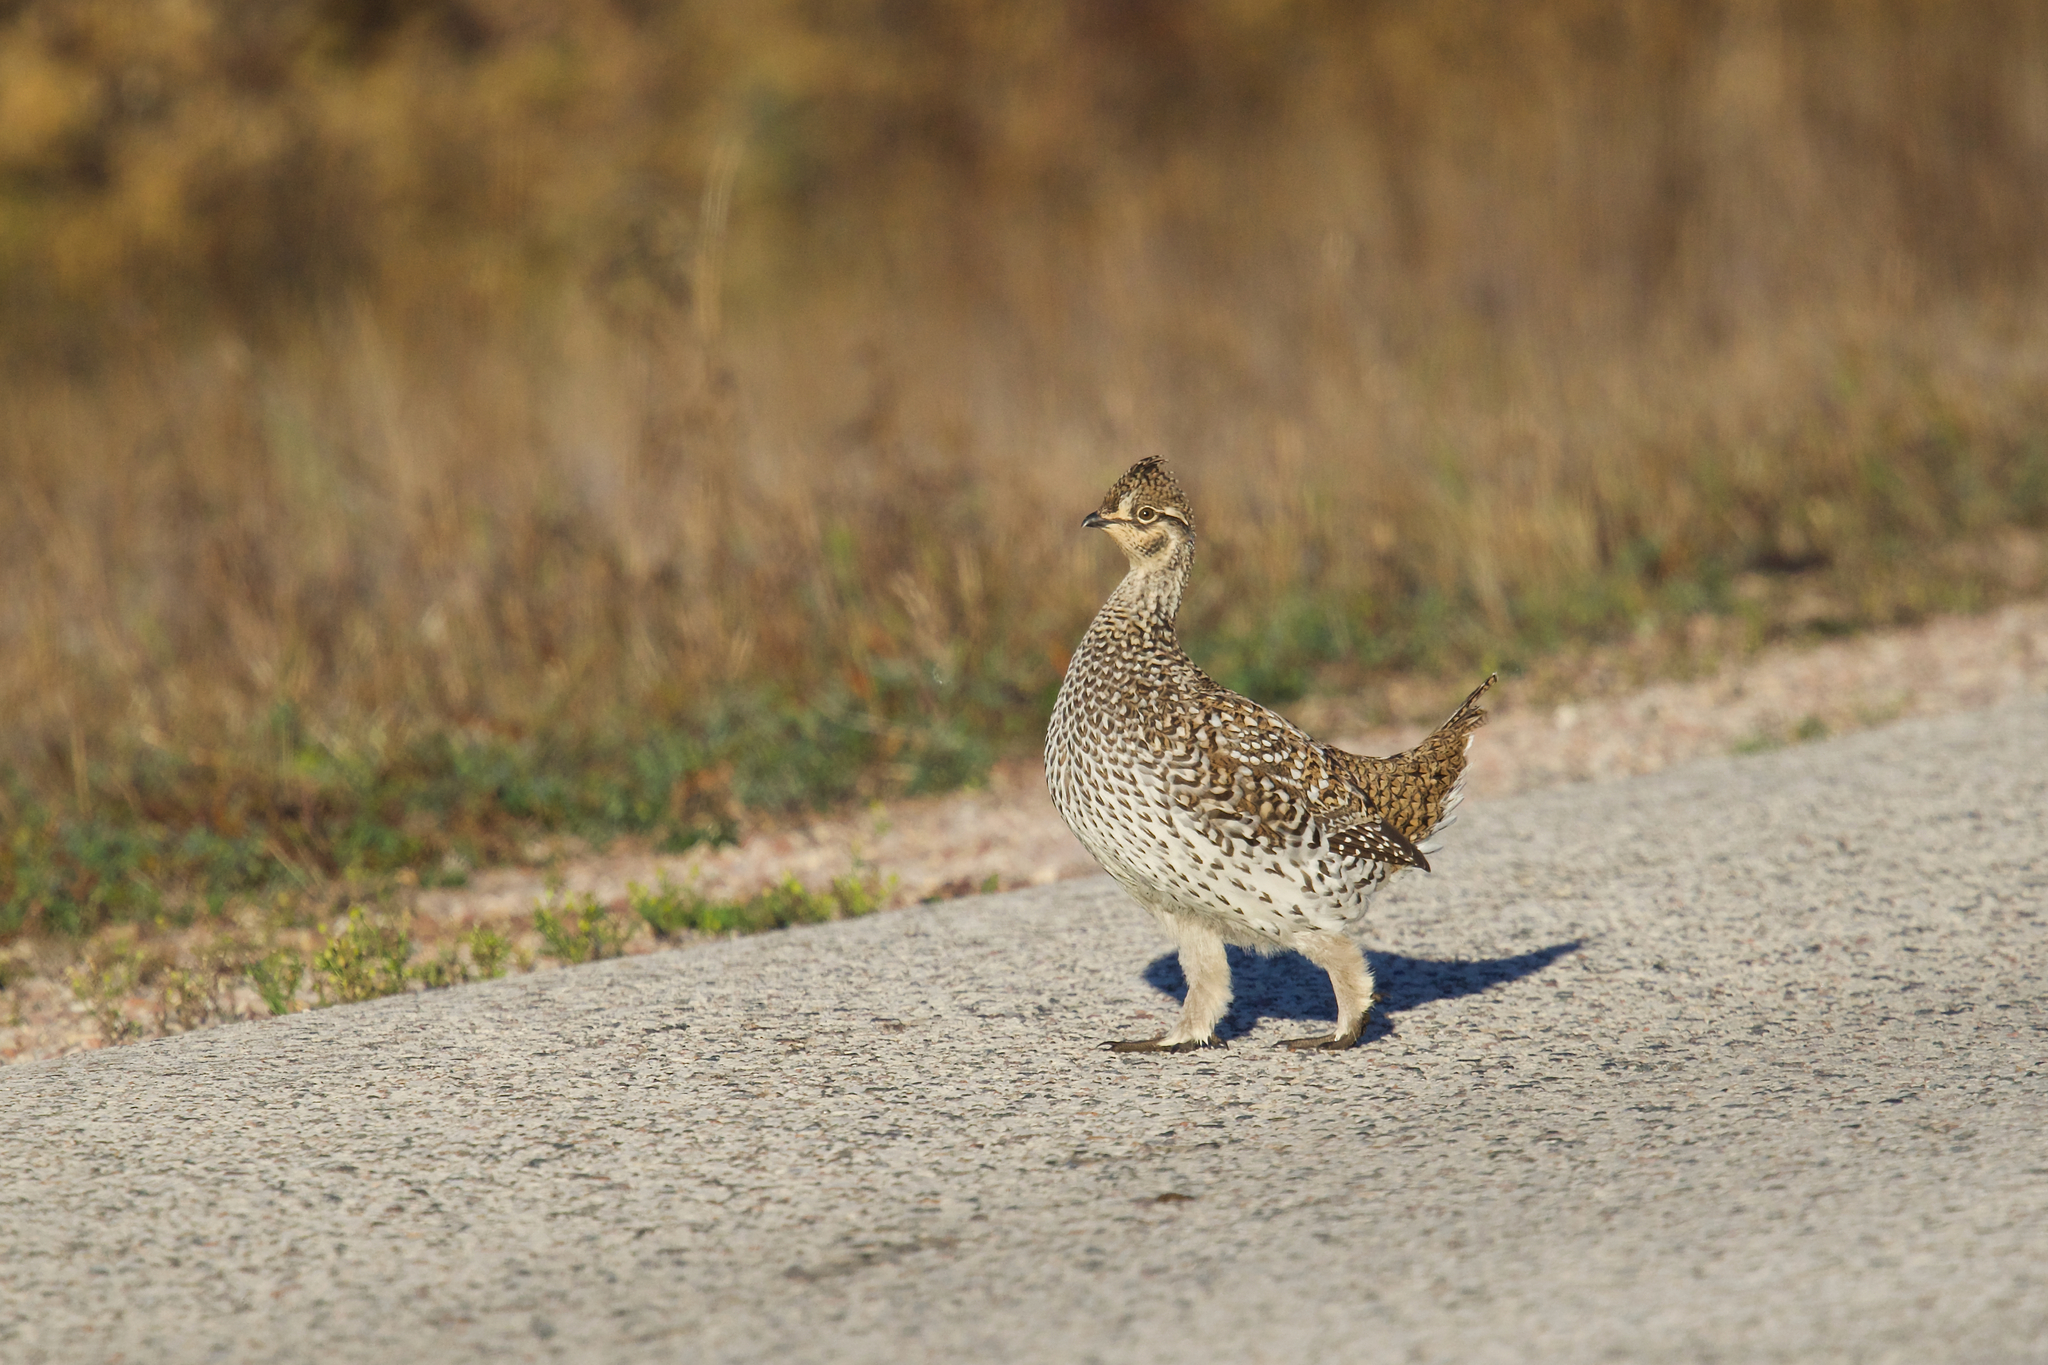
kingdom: Animalia
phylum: Chordata
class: Aves
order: Galliformes
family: Phasianidae
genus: Tympanuchus
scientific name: Tympanuchus phasianellus
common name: Sharp-tailed grouse
